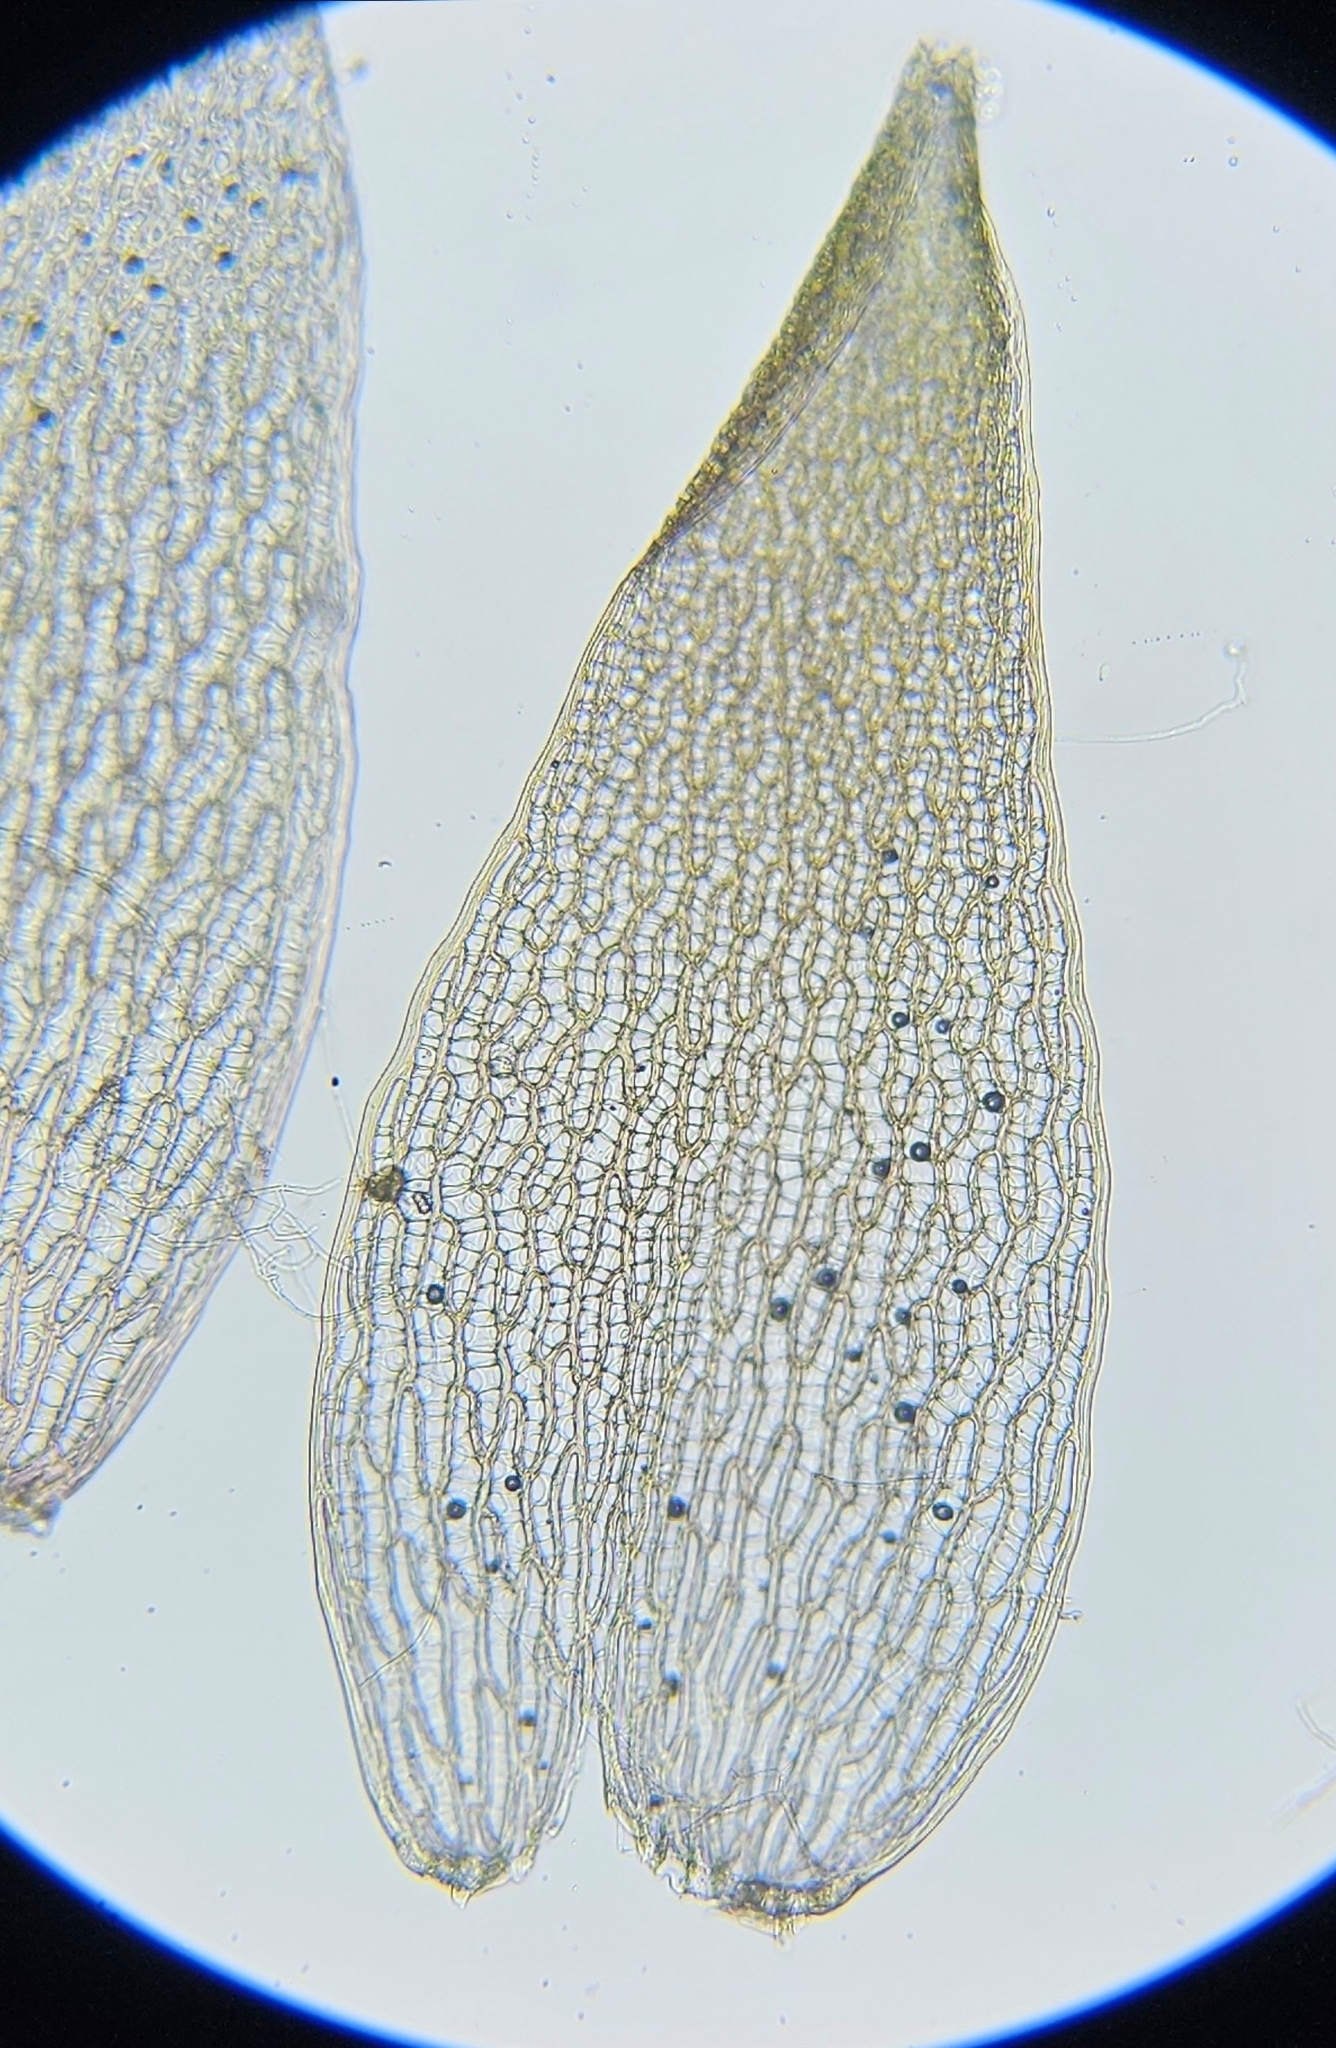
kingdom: Plantae
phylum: Bryophyta
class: Sphagnopsida
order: Sphagnales
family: Sphagnaceae
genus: Sphagnum
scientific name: Sphagnum russowii
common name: Russow's peat moss
